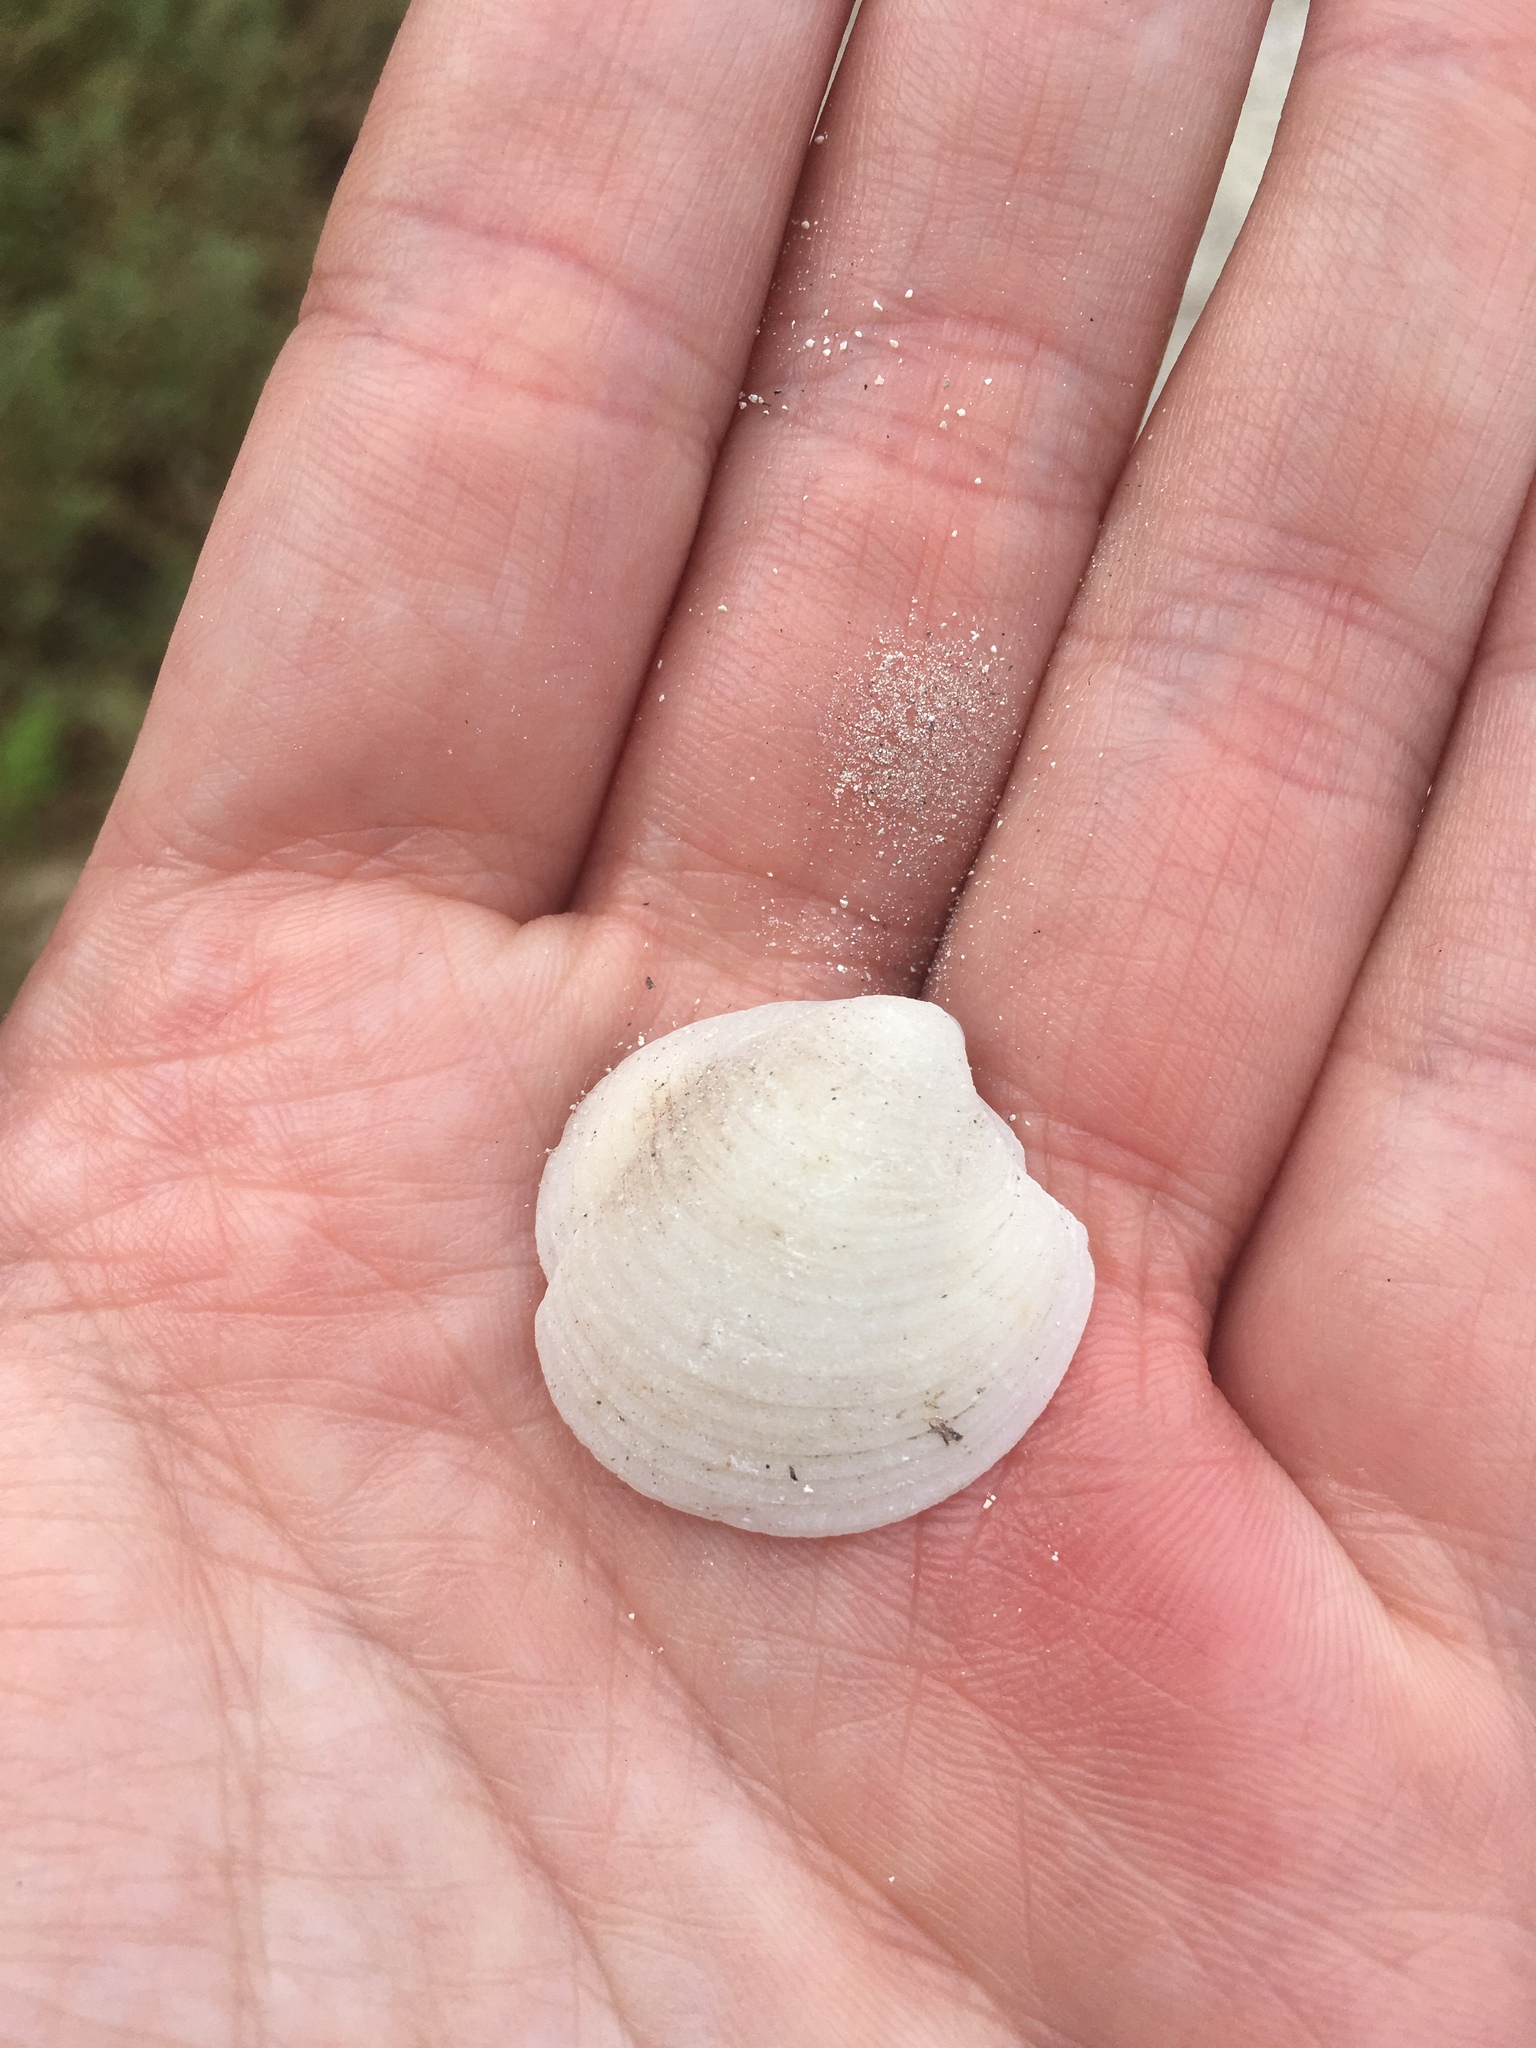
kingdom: Animalia
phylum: Mollusca
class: Bivalvia
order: Lucinida
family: Lucinidae
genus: Lucina
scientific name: Lucina pensylvanica
